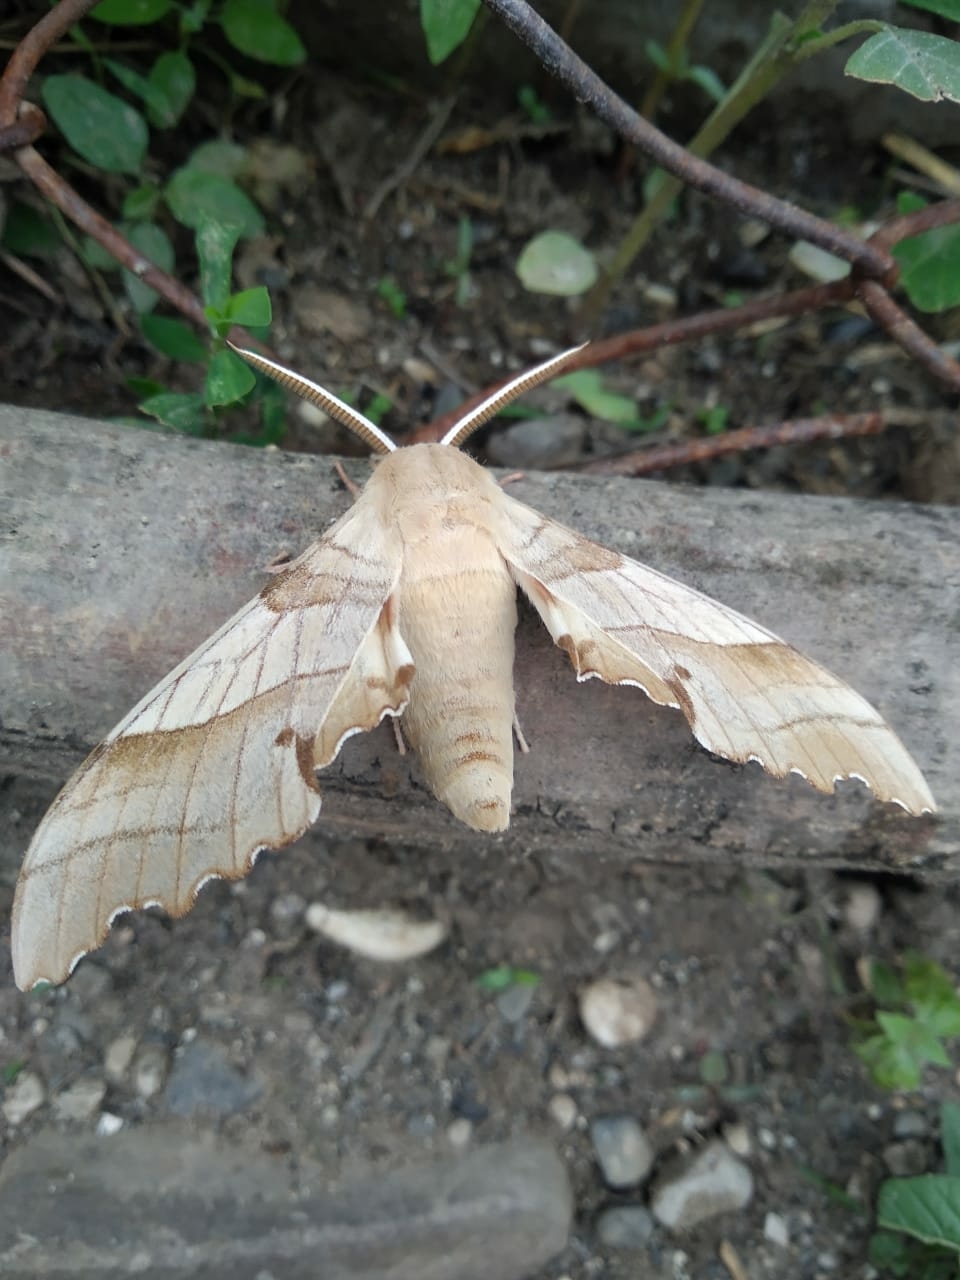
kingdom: Animalia
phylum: Arthropoda
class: Insecta
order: Lepidoptera
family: Sphingidae
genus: Marumba
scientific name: Marumba quercus
